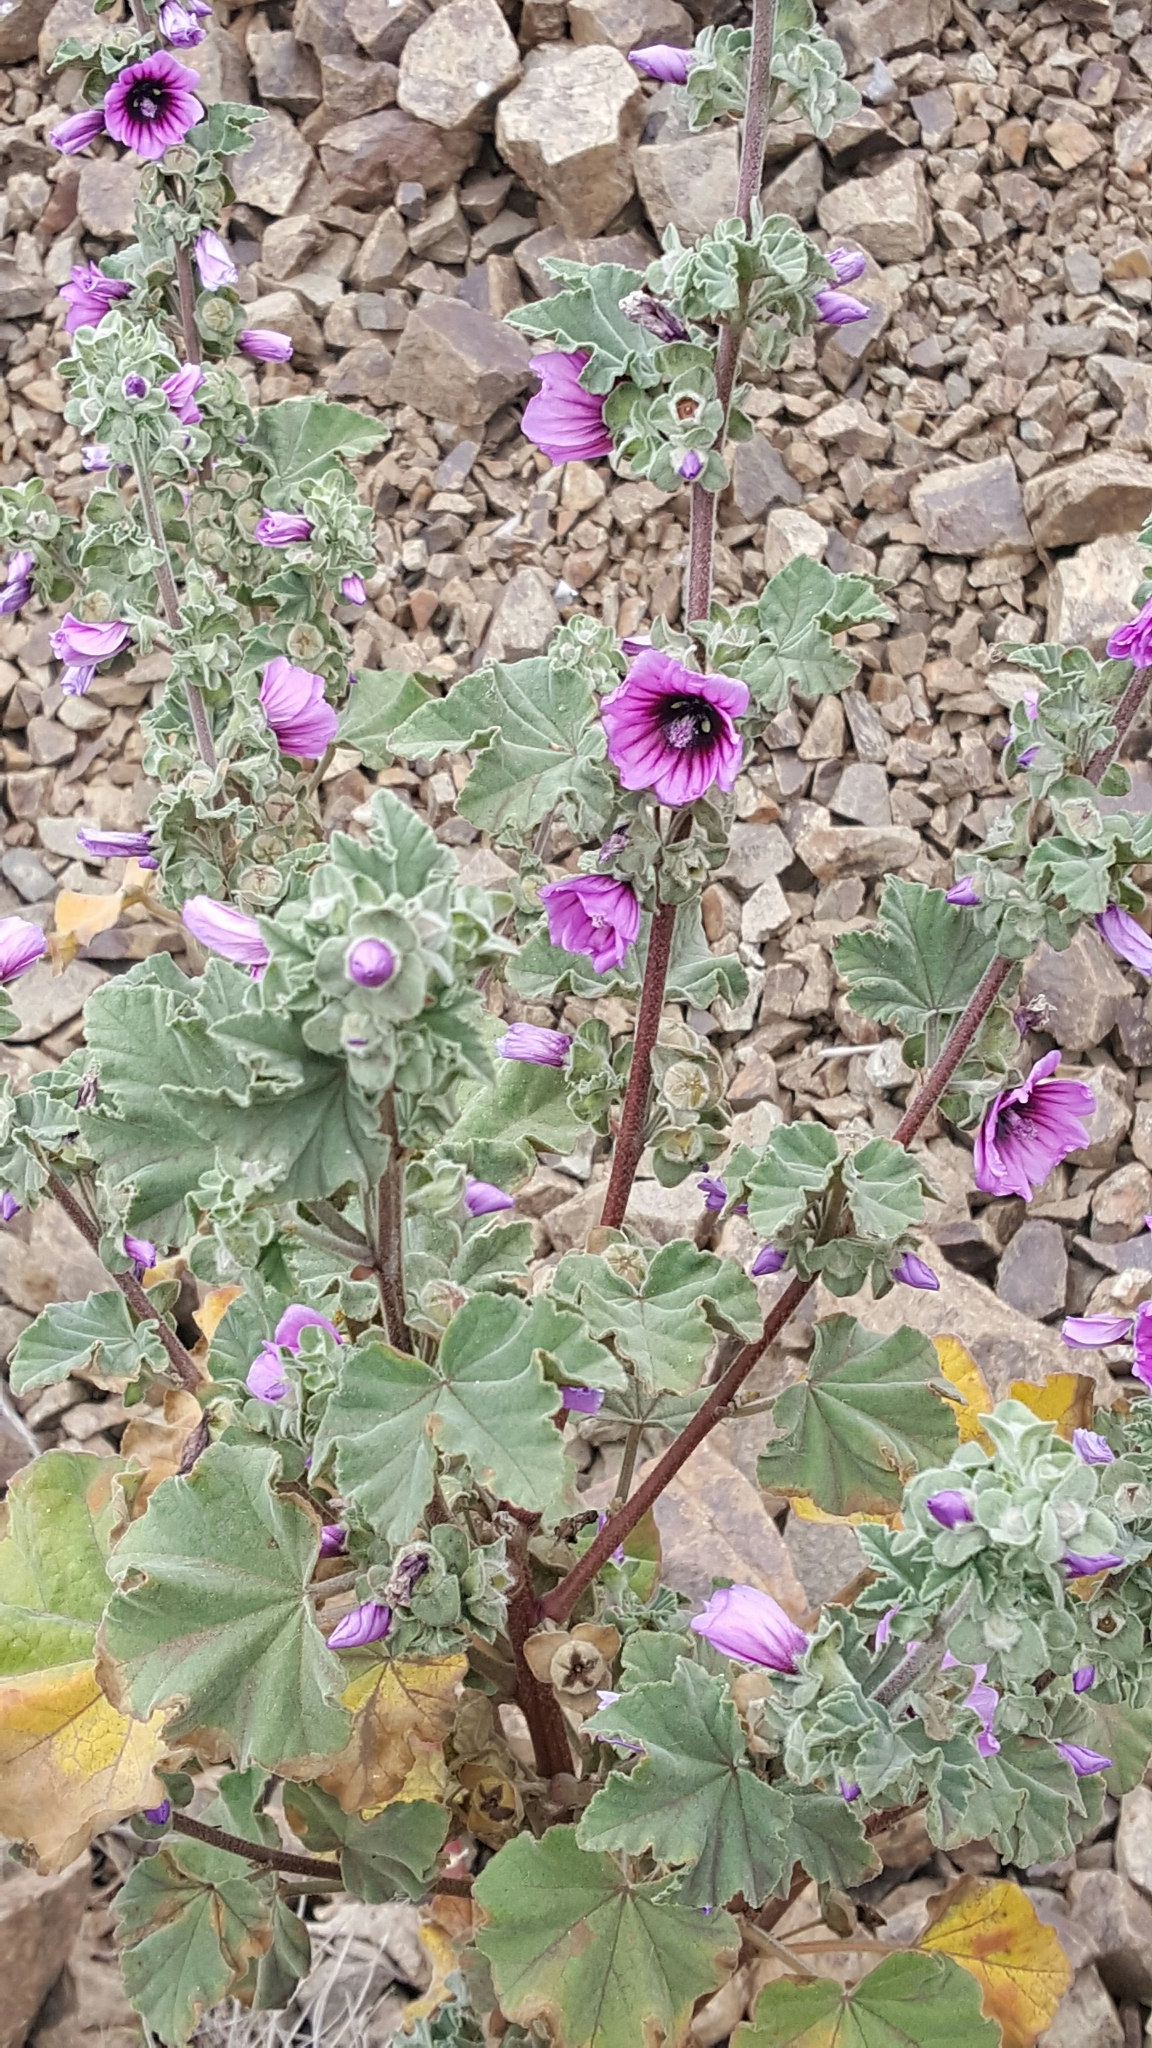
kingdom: Plantae
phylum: Tracheophyta
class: Magnoliopsida
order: Malvales
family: Malvaceae
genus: Malva
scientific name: Malva arborea
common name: Tree mallow
